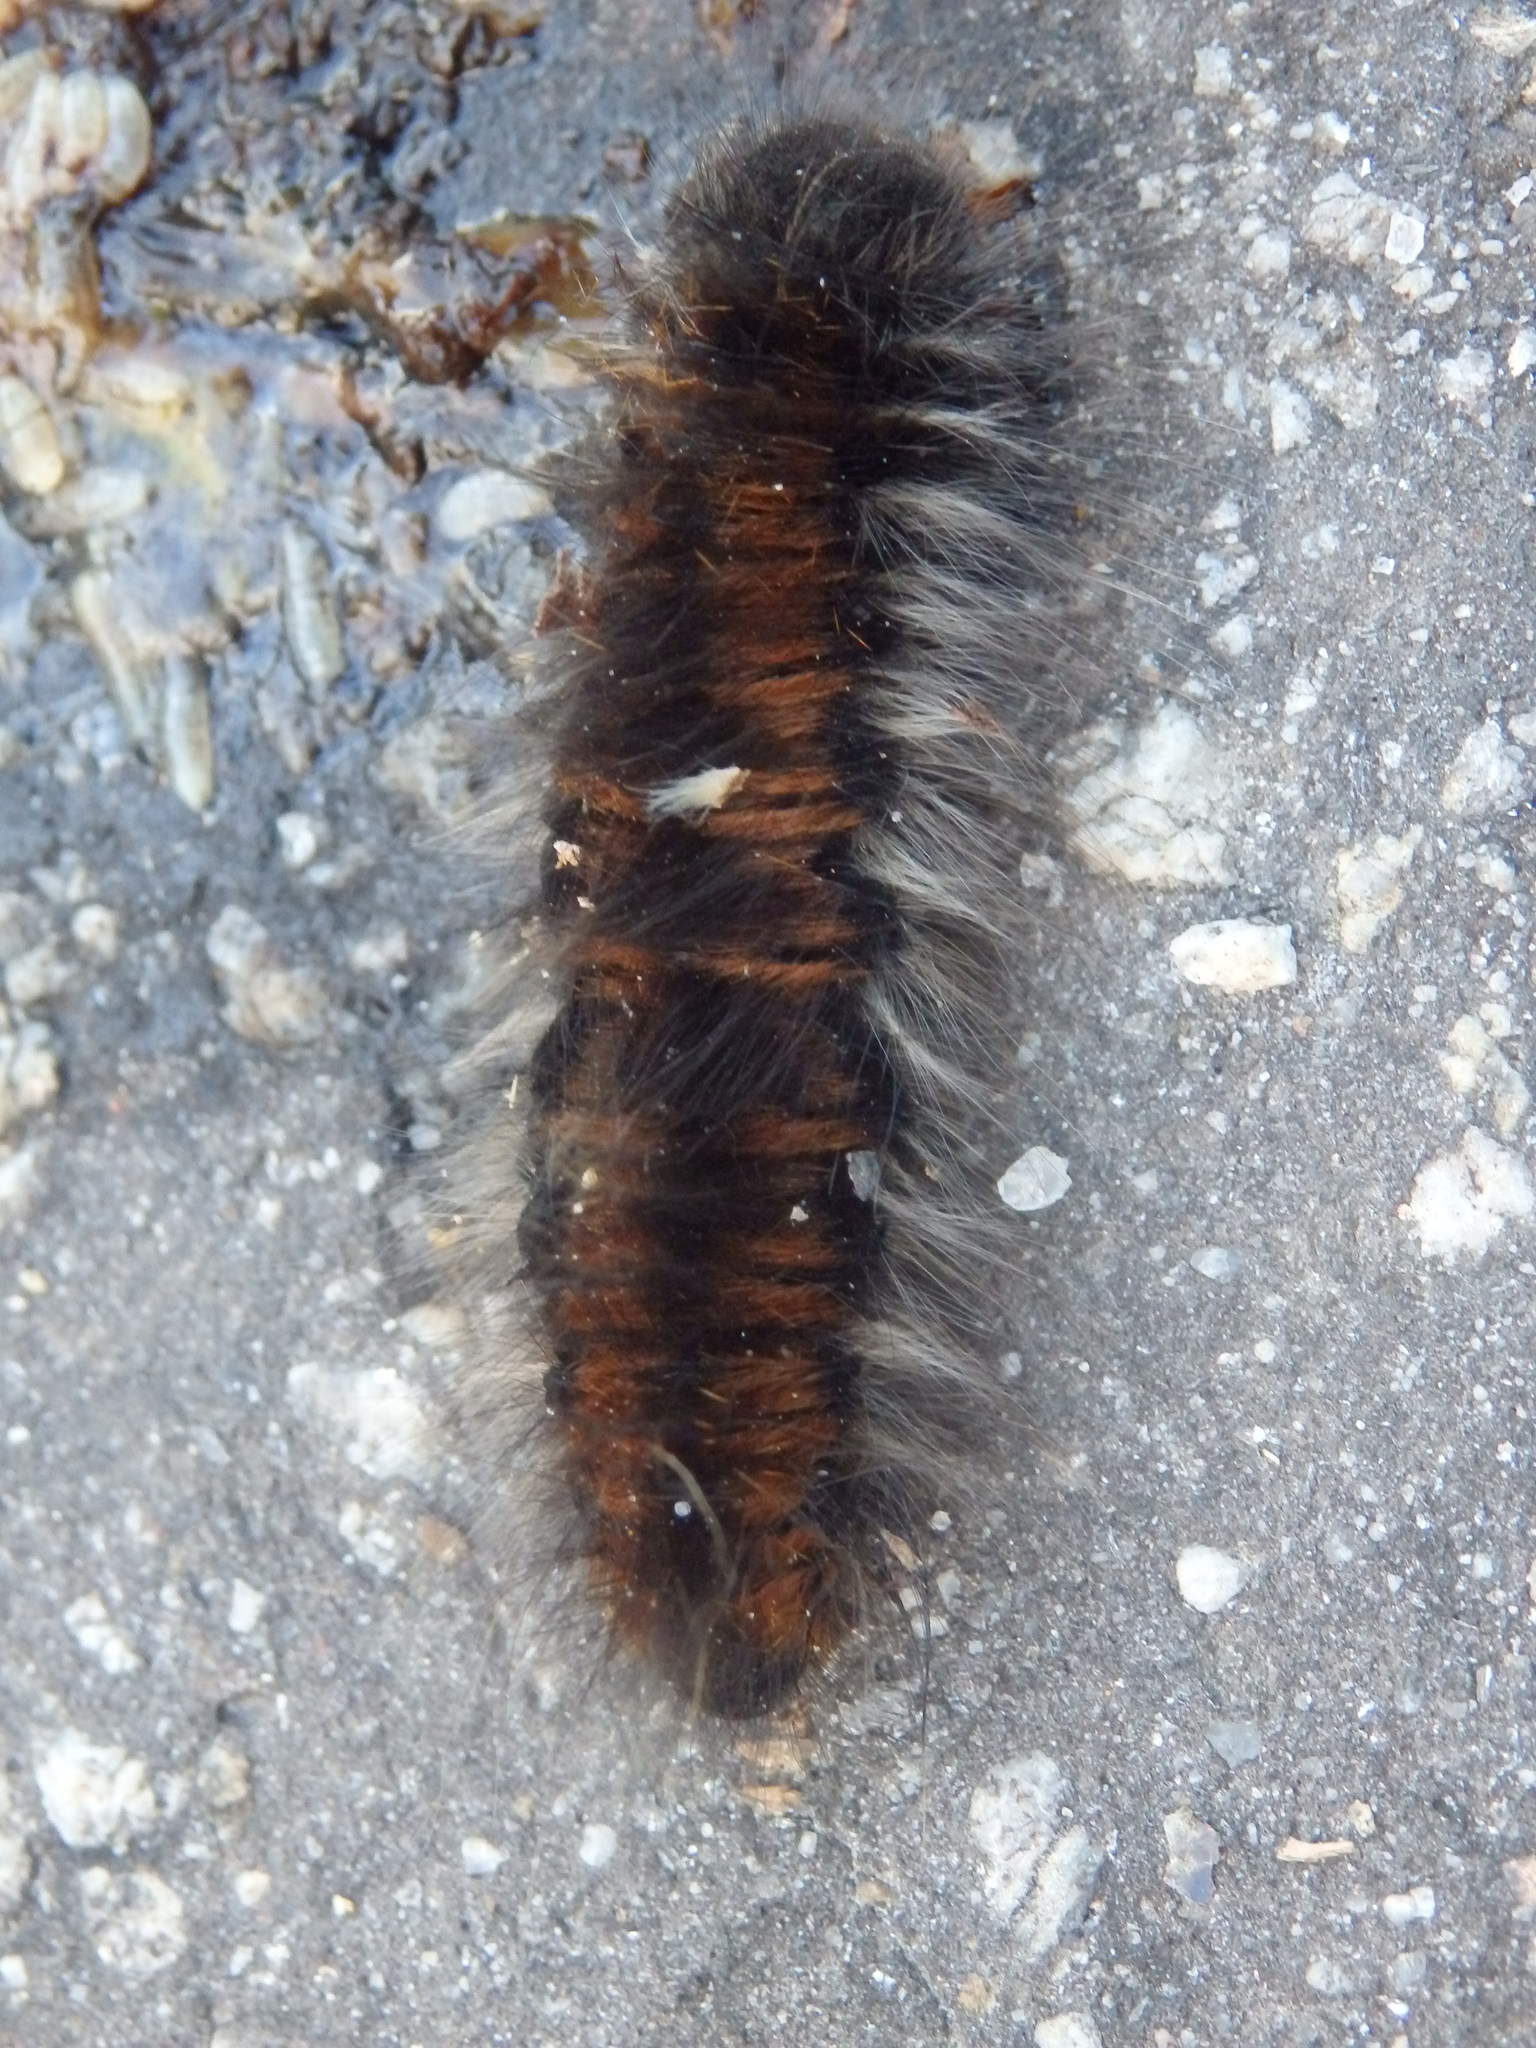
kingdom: Animalia
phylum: Arthropoda
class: Insecta
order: Lepidoptera
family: Lasiocampidae
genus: Macrothylacia
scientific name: Macrothylacia rubi
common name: Fox moth
